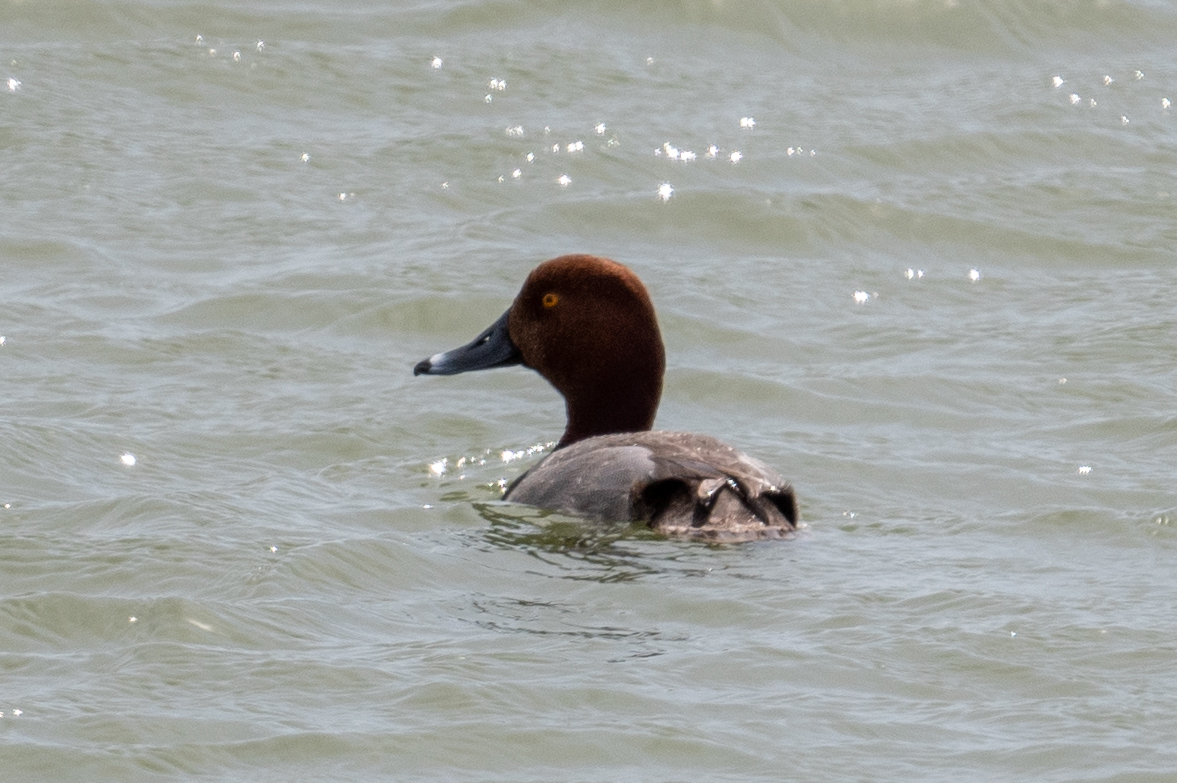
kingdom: Animalia
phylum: Chordata
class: Aves
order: Anseriformes
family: Anatidae
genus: Aythya
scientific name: Aythya americana
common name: Redhead
